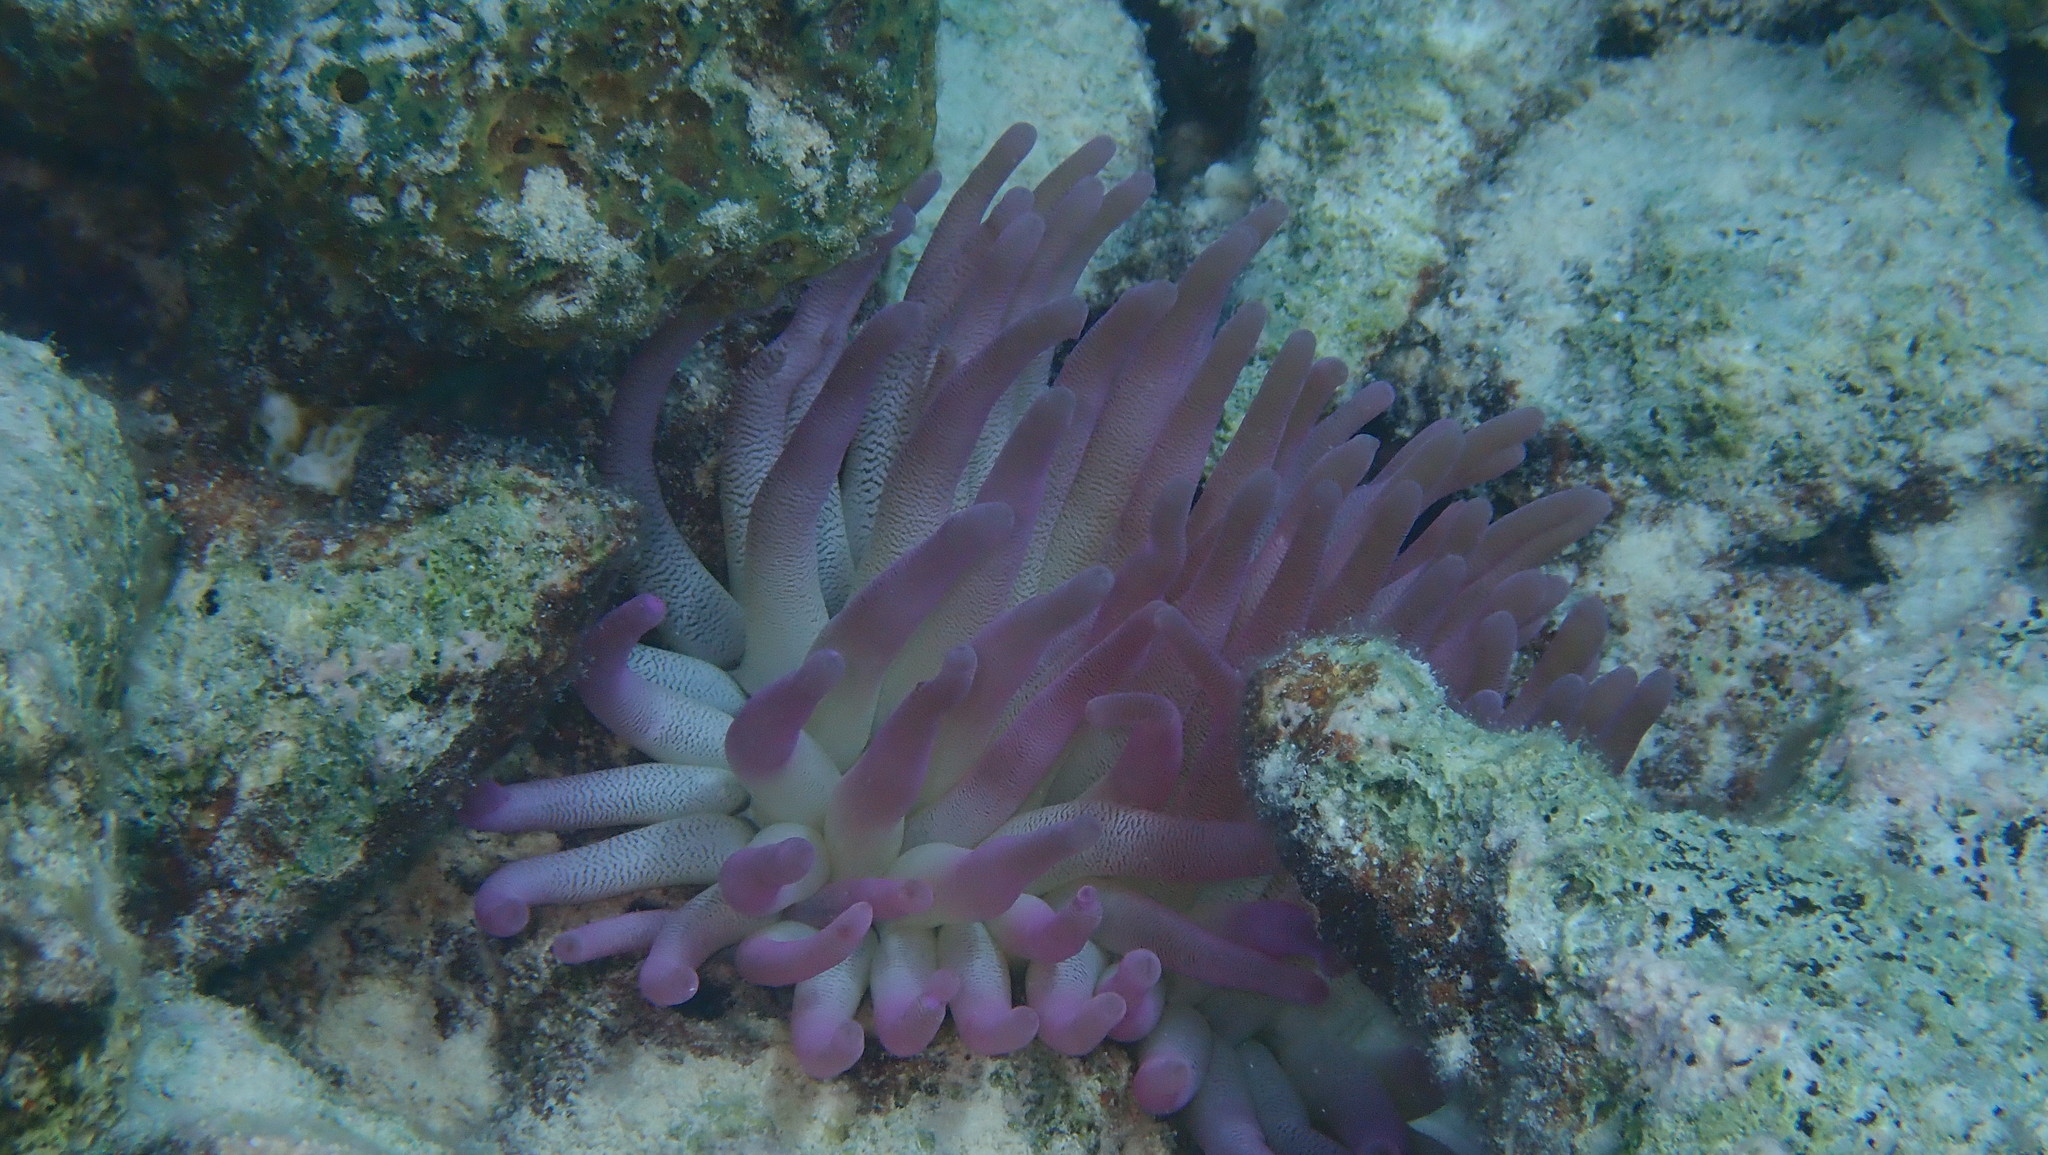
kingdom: Animalia
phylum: Cnidaria
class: Anthozoa
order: Actiniaria
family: Actiniidae
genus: Condylactis
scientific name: Condylactis gigantea
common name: Giant caribbean anemone
